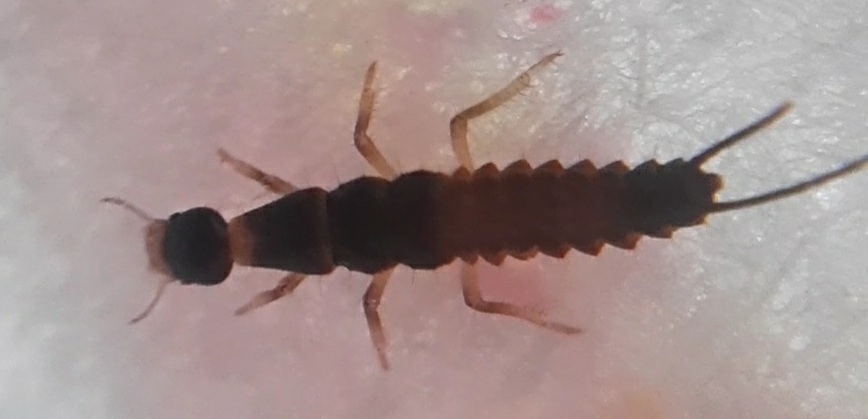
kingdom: Animalia
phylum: Arthropoda
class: Insecta
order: Coleoptera
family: Carabidae
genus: Drypta
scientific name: Drypta dentata
